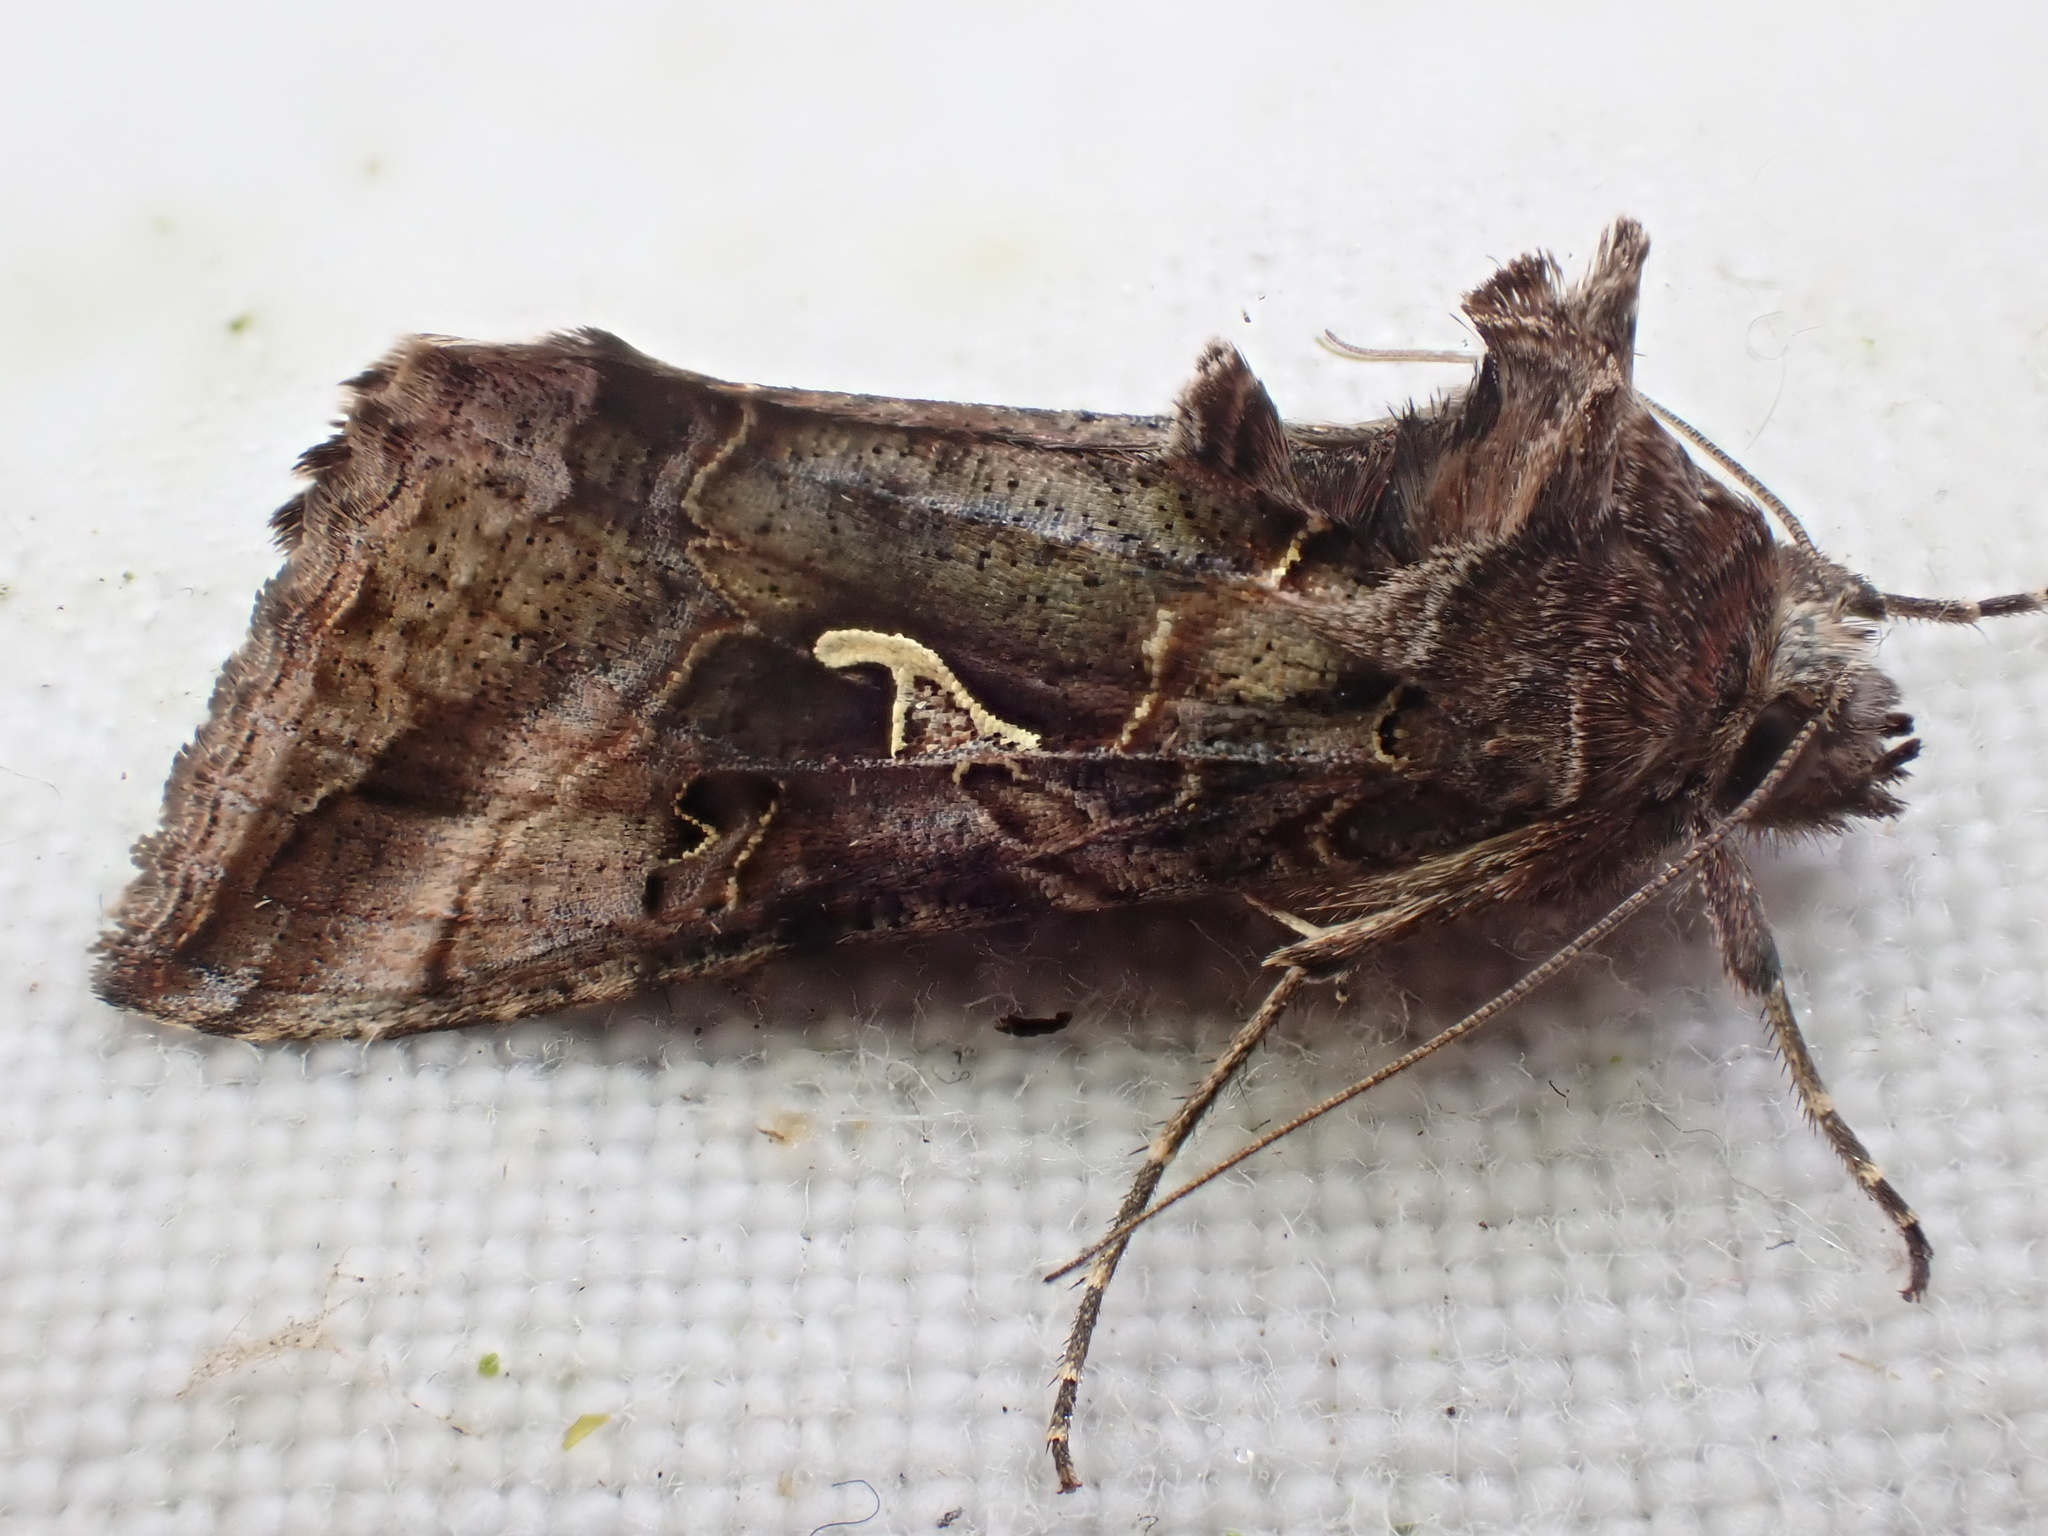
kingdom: Animalia
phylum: Arthropoda
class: Insecta
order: Lepidoptera
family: Noctuidae
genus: Autographa
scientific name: Autographa gamma
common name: Silver y
